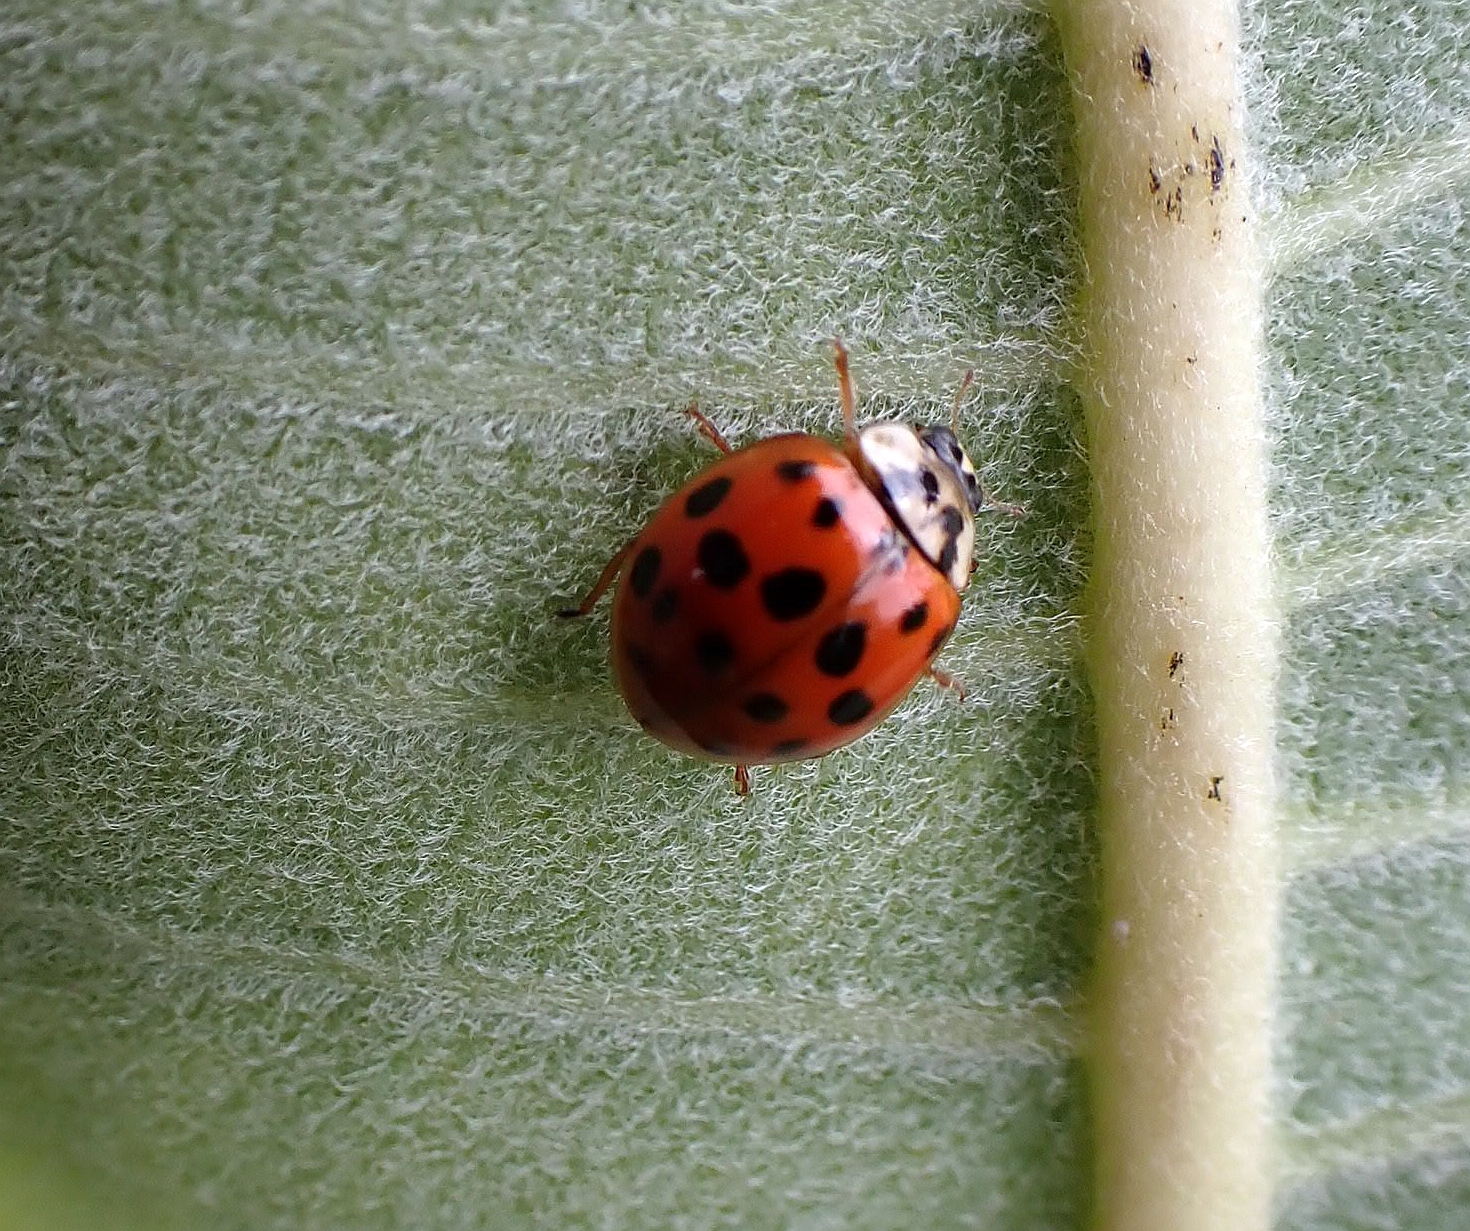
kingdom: Animalia
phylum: Arthropoda
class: Insecta
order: Coleoptera
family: Coccinellidae
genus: Harmonia
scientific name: Harmonia axyridis
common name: Harlequin ladybird
